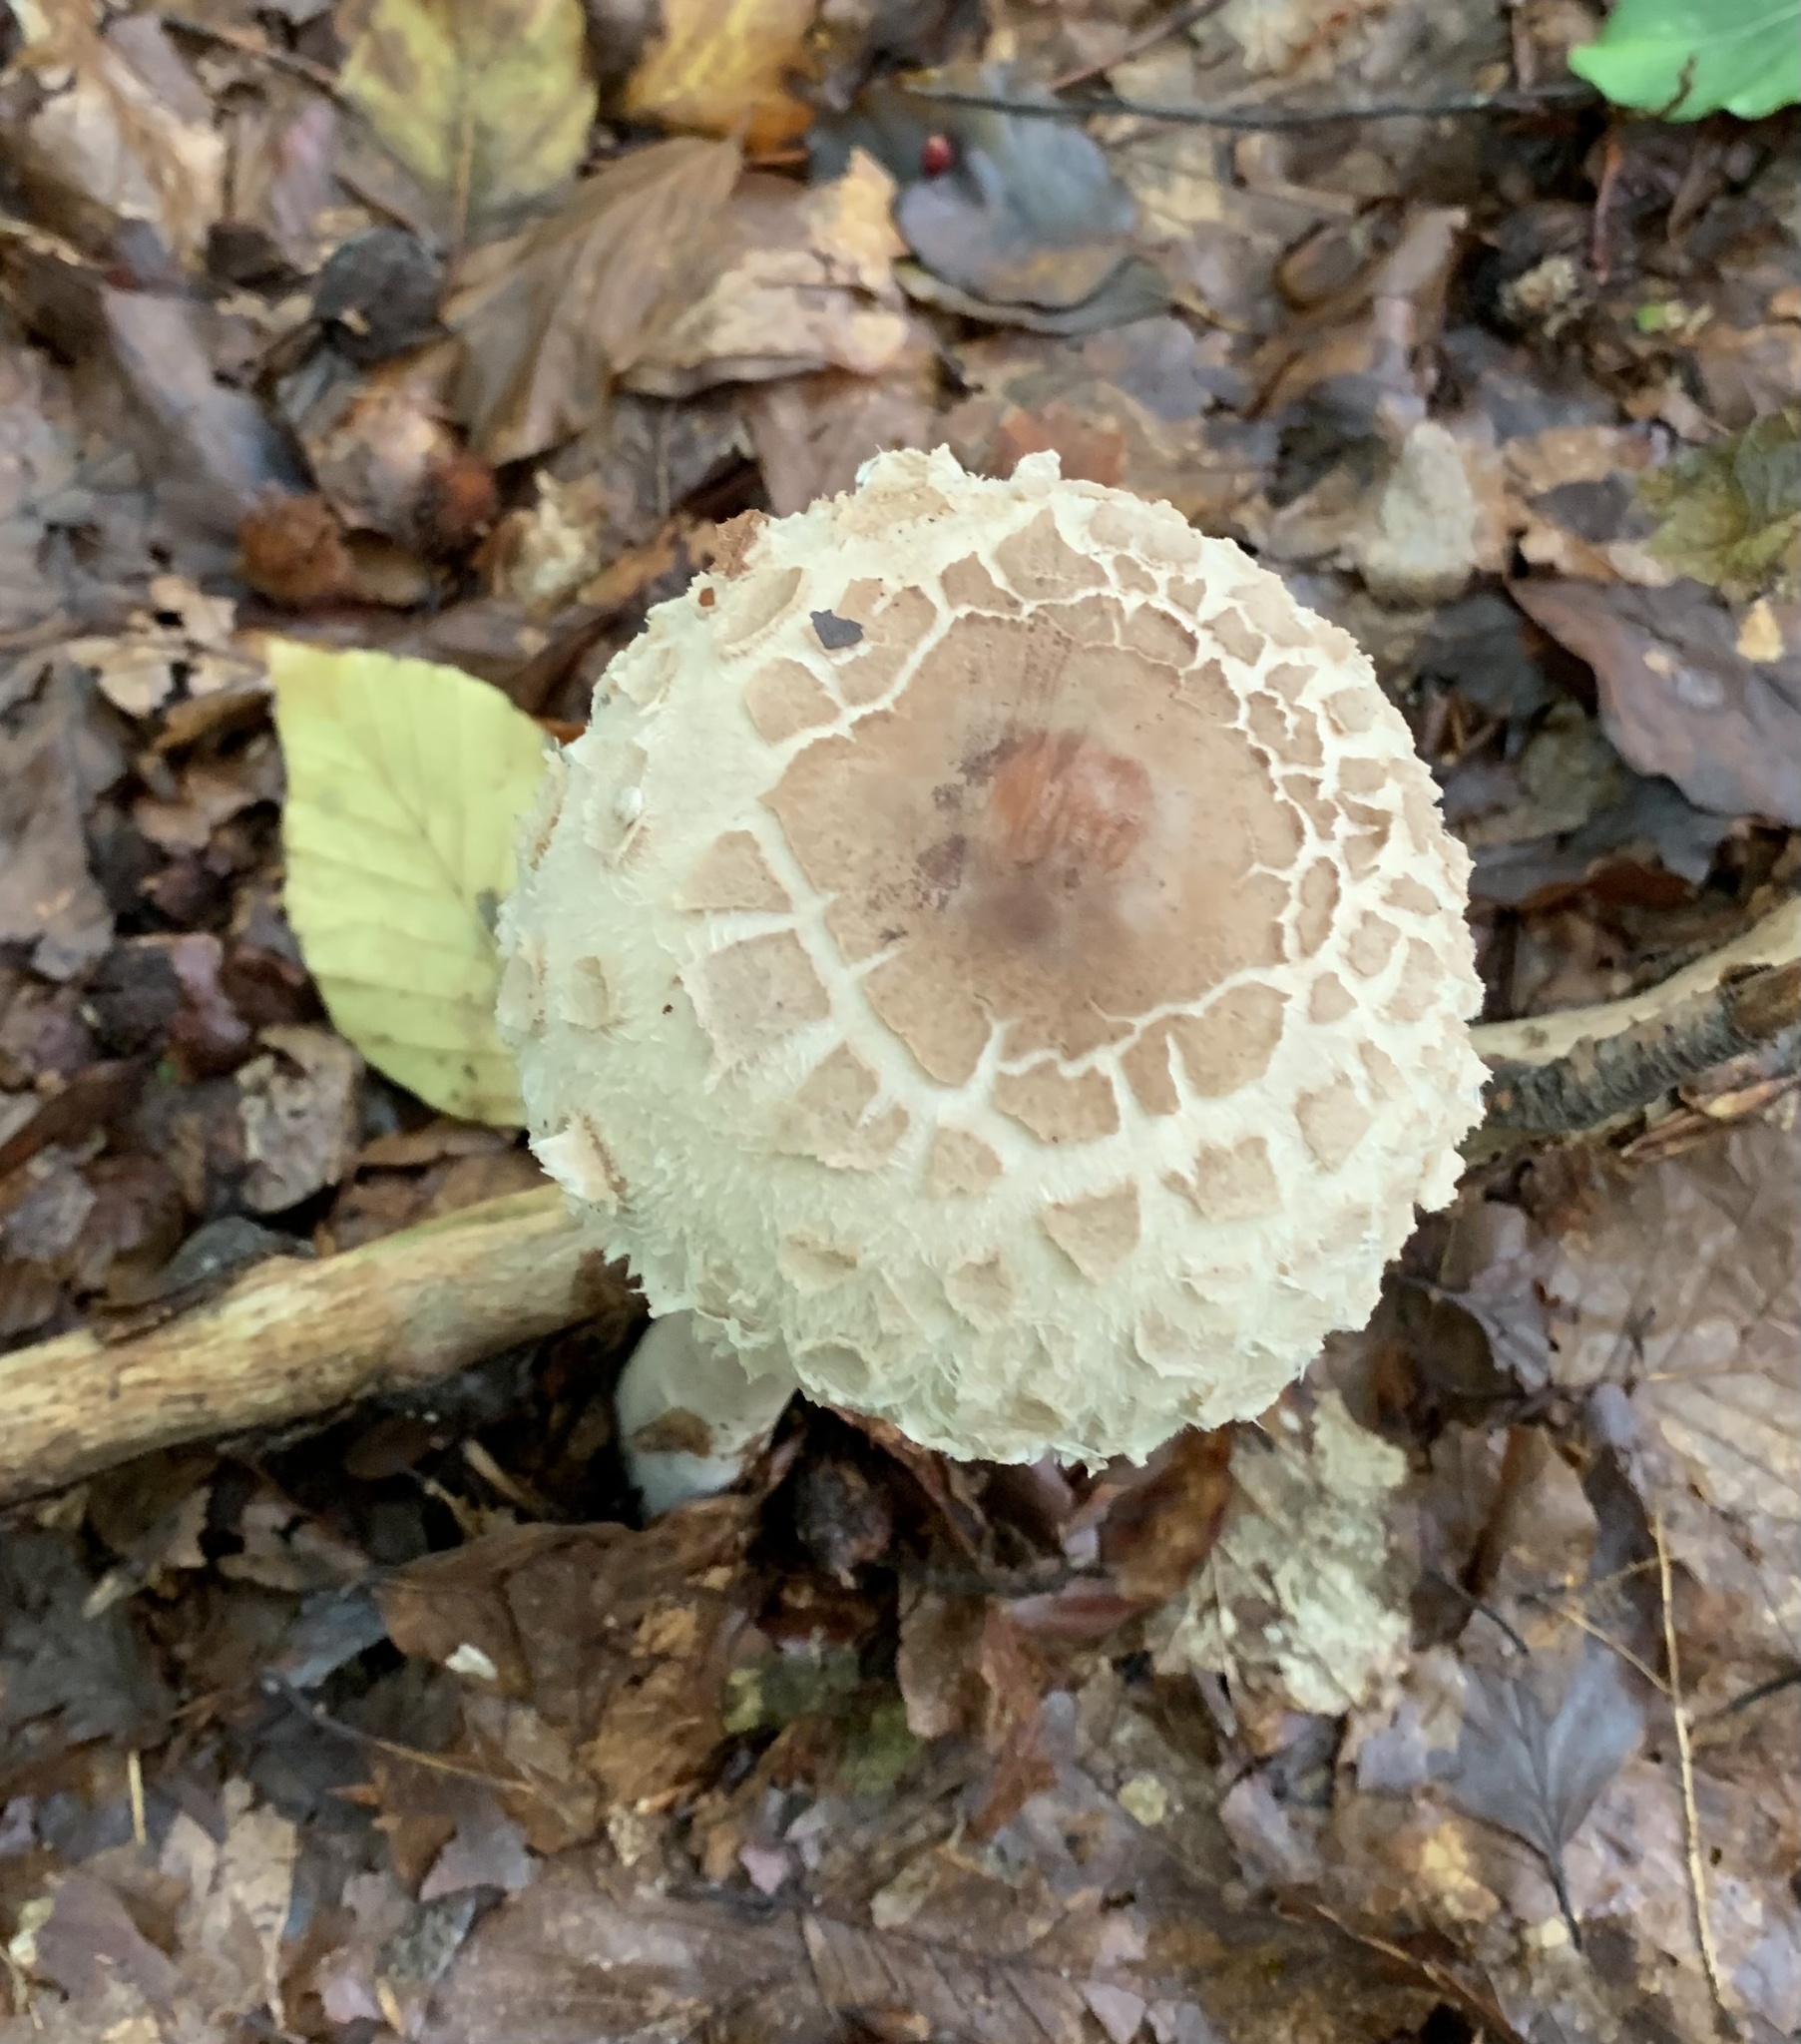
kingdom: Fungi
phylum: Basidiomycota
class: Agaricomycetes
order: Agaricales
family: Agaricaceae
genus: Macrolepiota
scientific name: Macrolepiota procera
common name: Parasol
